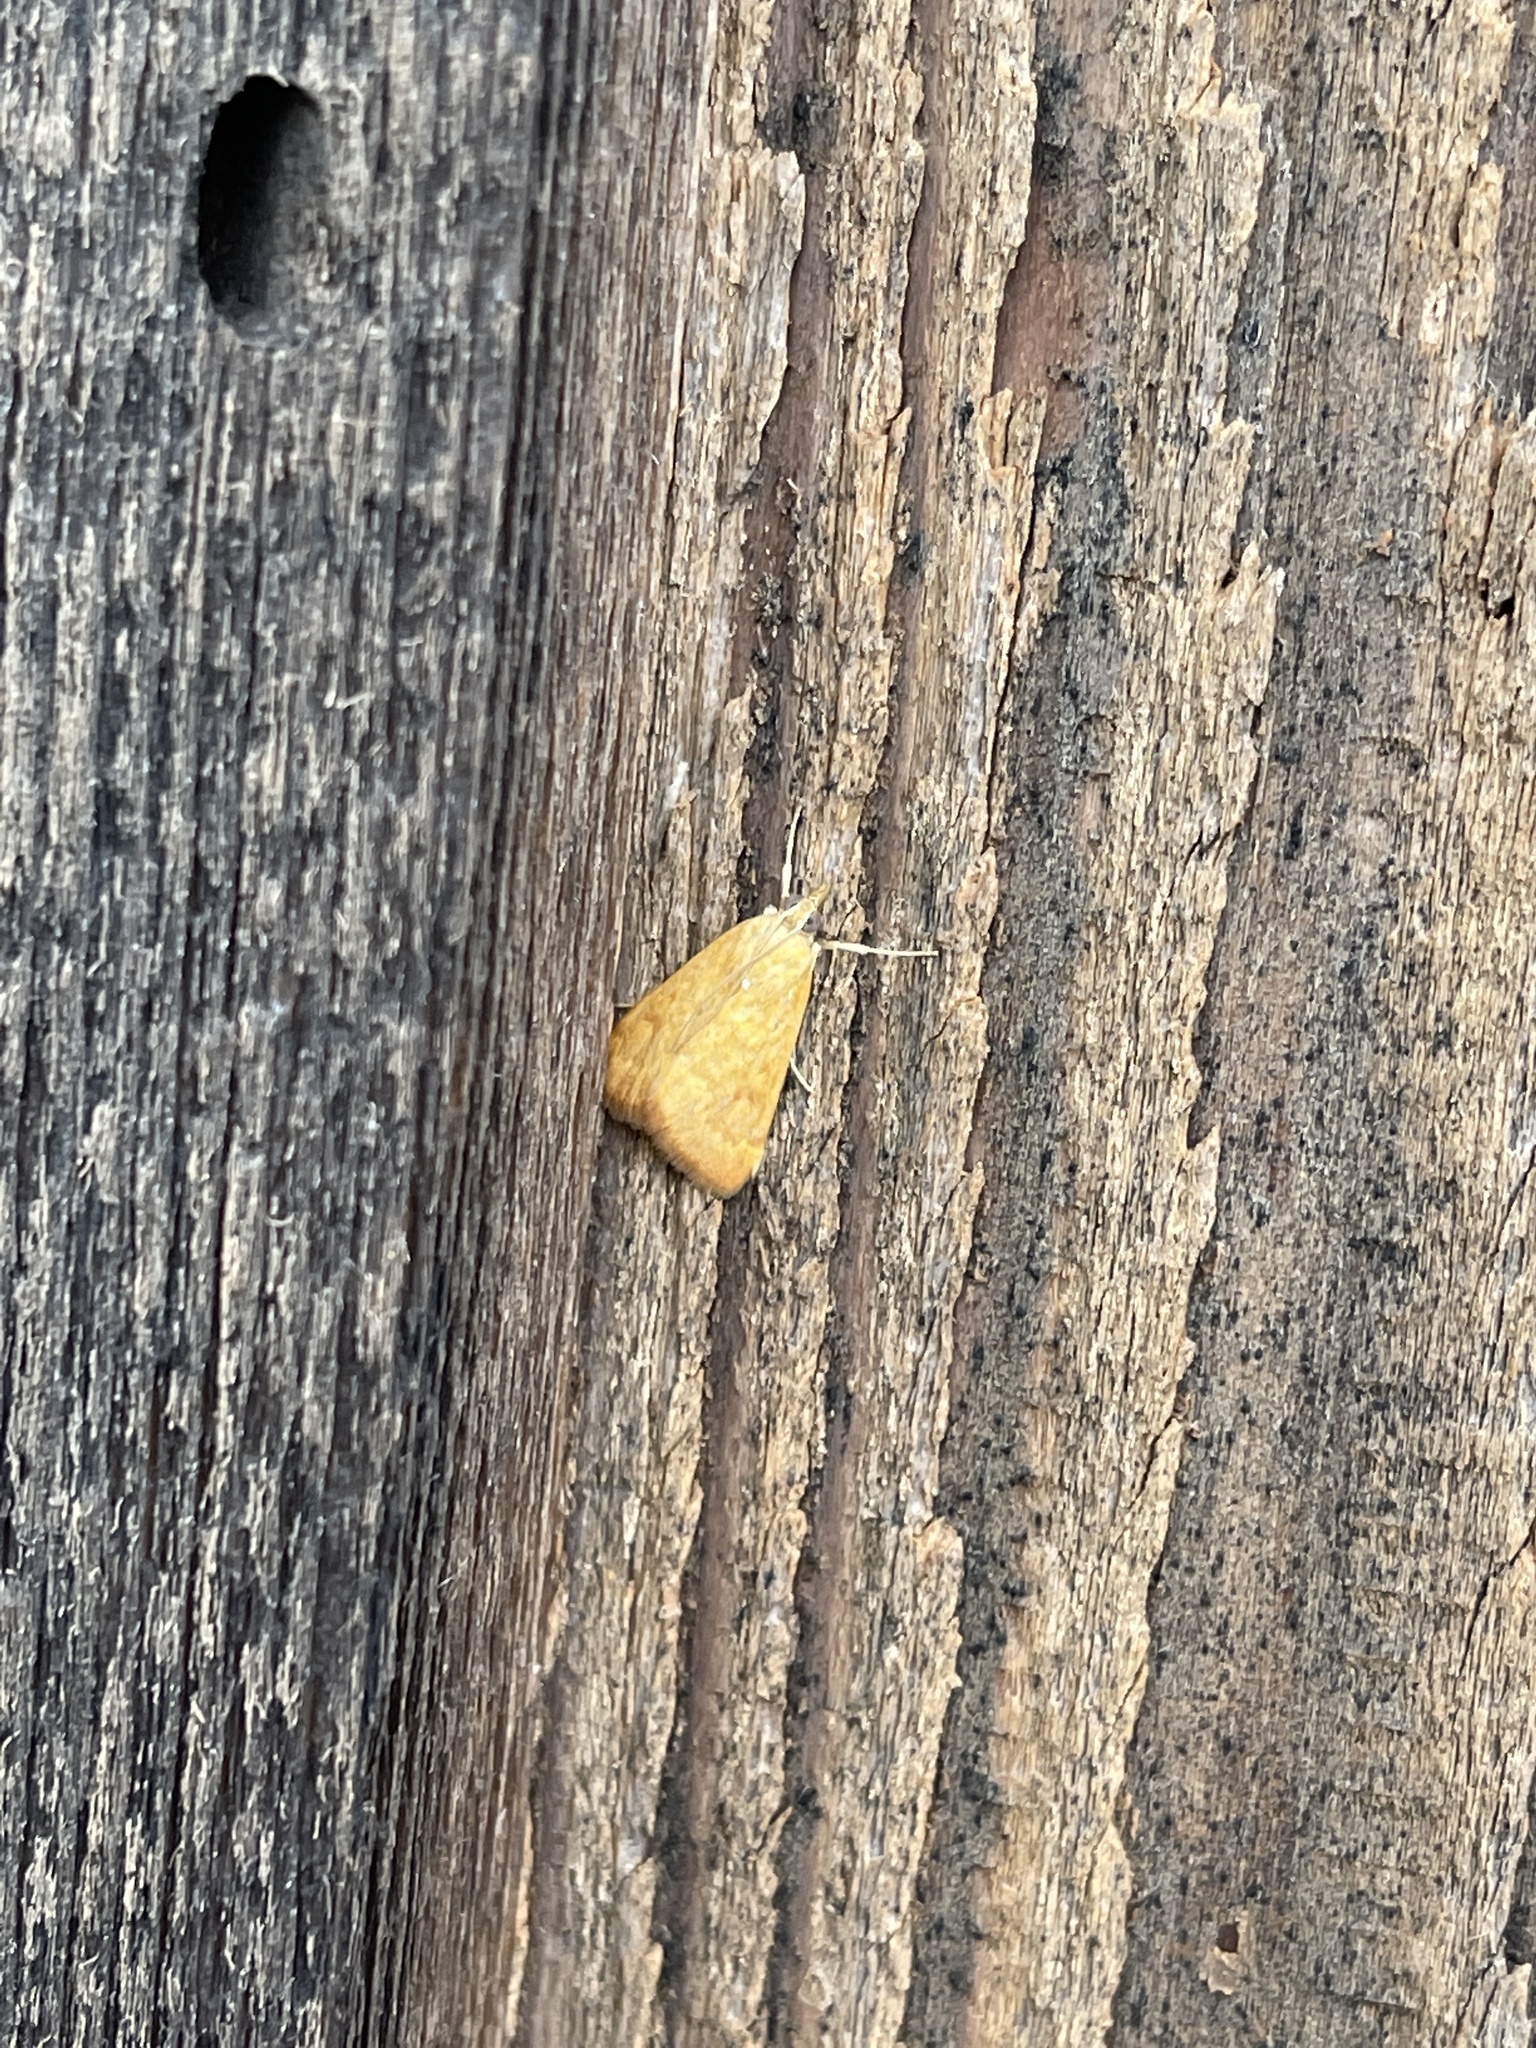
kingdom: Animalia
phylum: Arthropoda
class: Insecta
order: Lepidoptera
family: Crambidae
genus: Achyra
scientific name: Achyra rantalis
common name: Garden webworm
